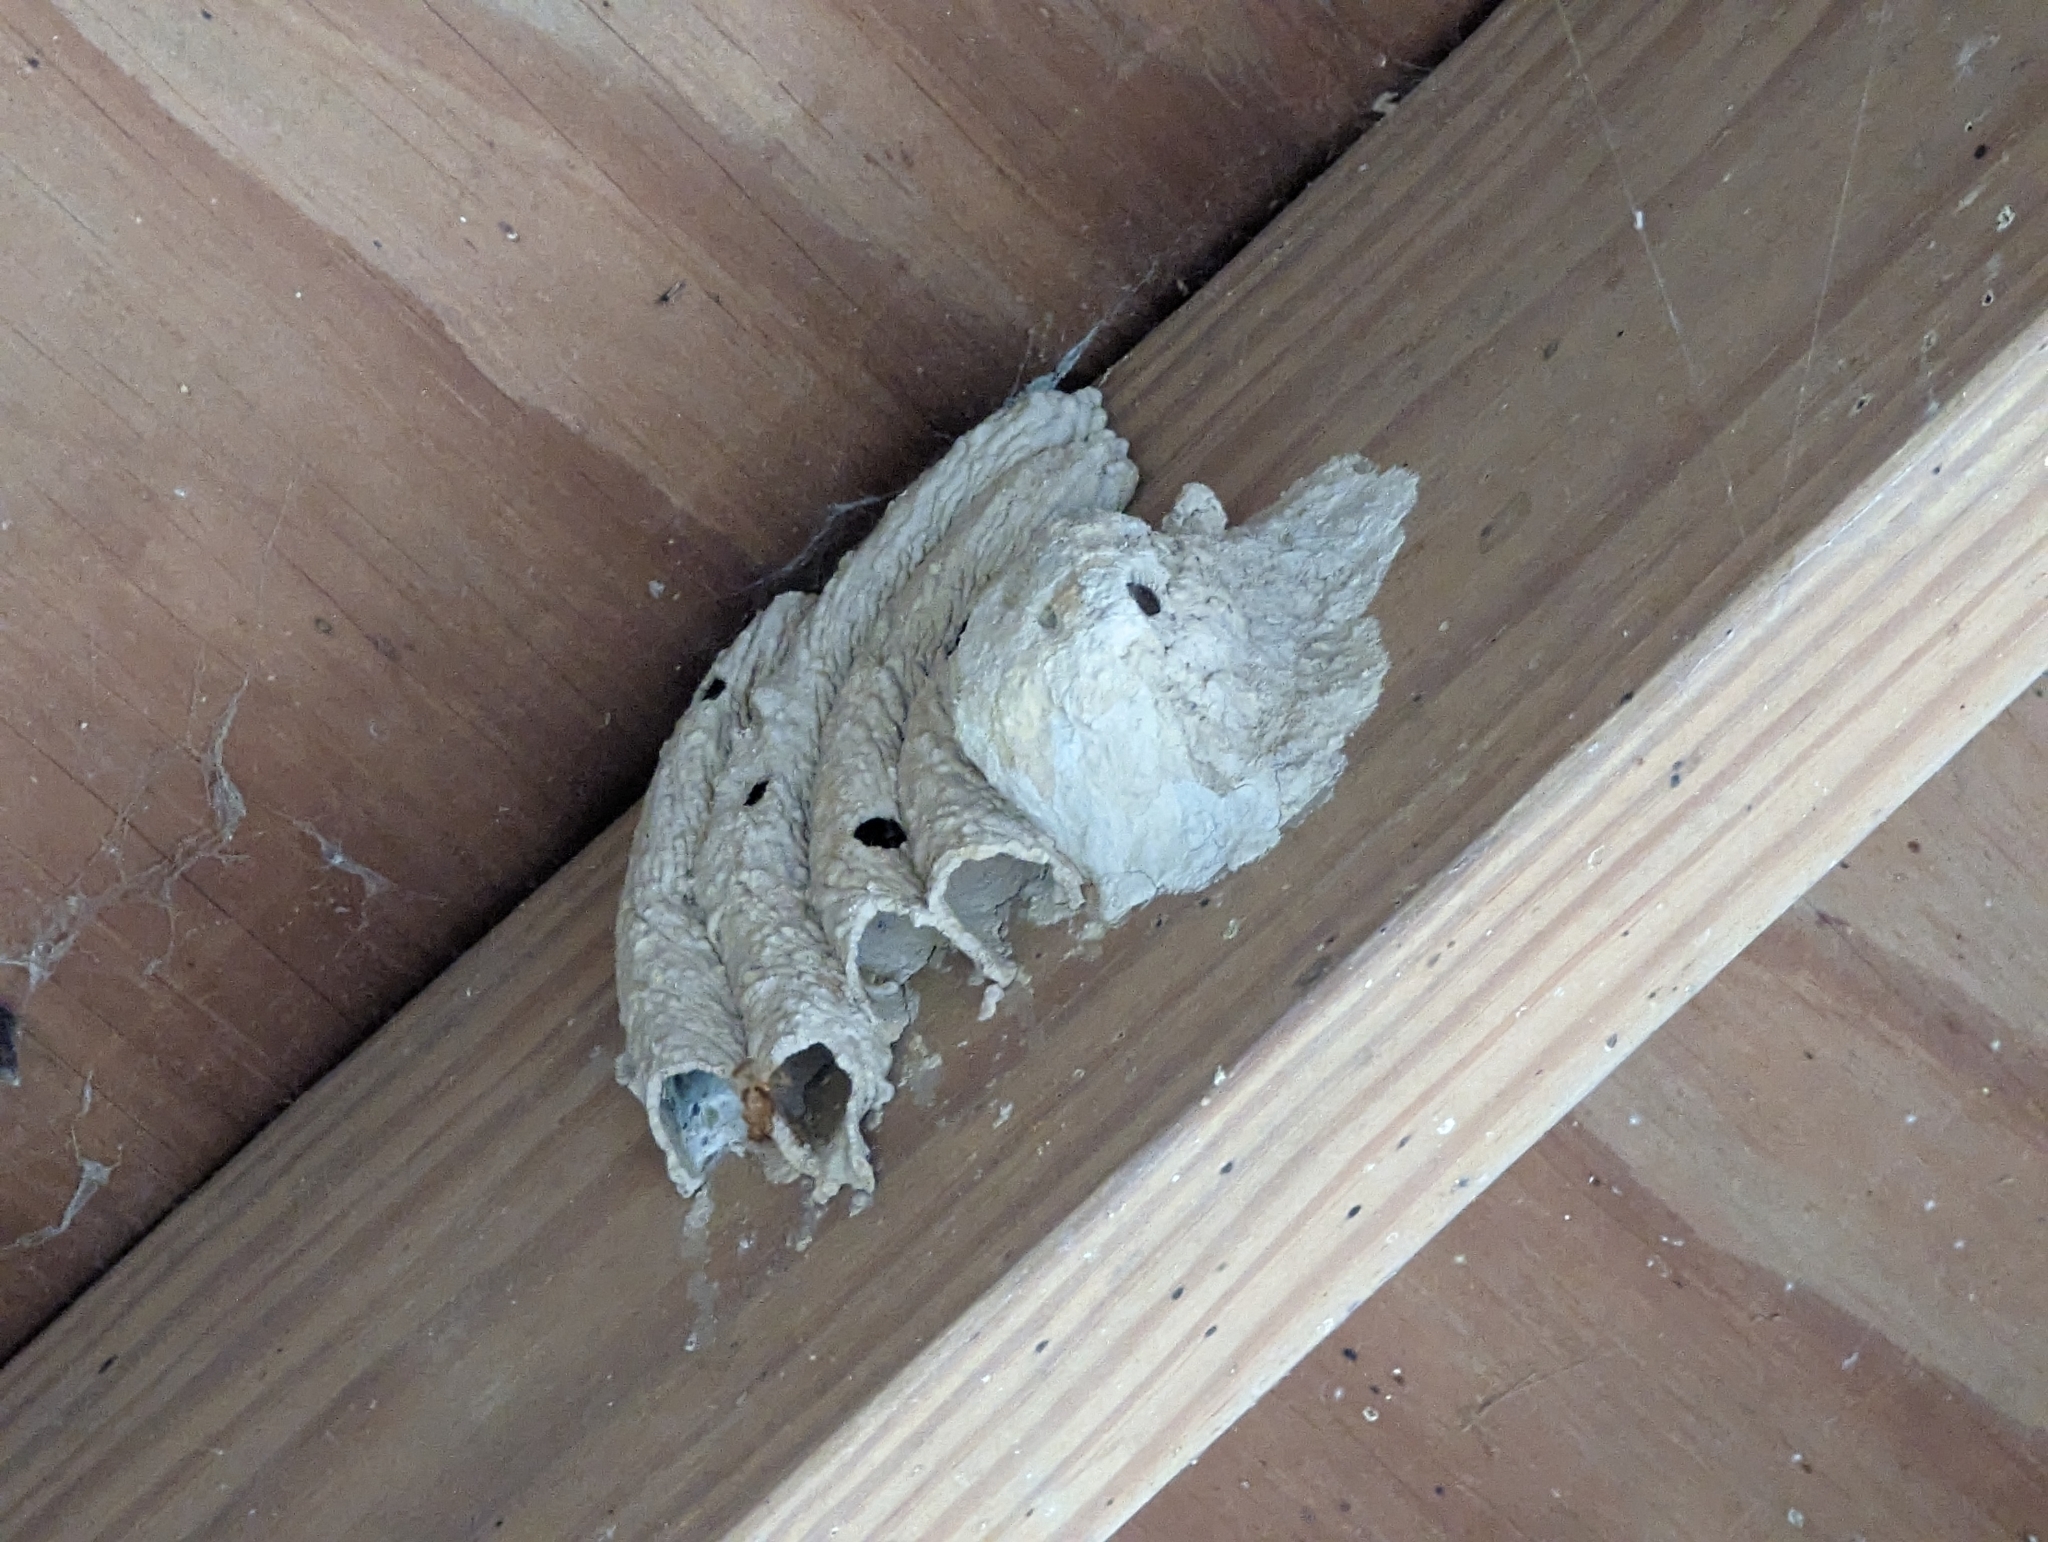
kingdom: Animalia
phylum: Arthropoda
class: Insecta
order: Hymenoptera
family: Crabronidae
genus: Trypoxylon
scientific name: Trypoxylon politum
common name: Organ-pipe mud-dauber wasp
